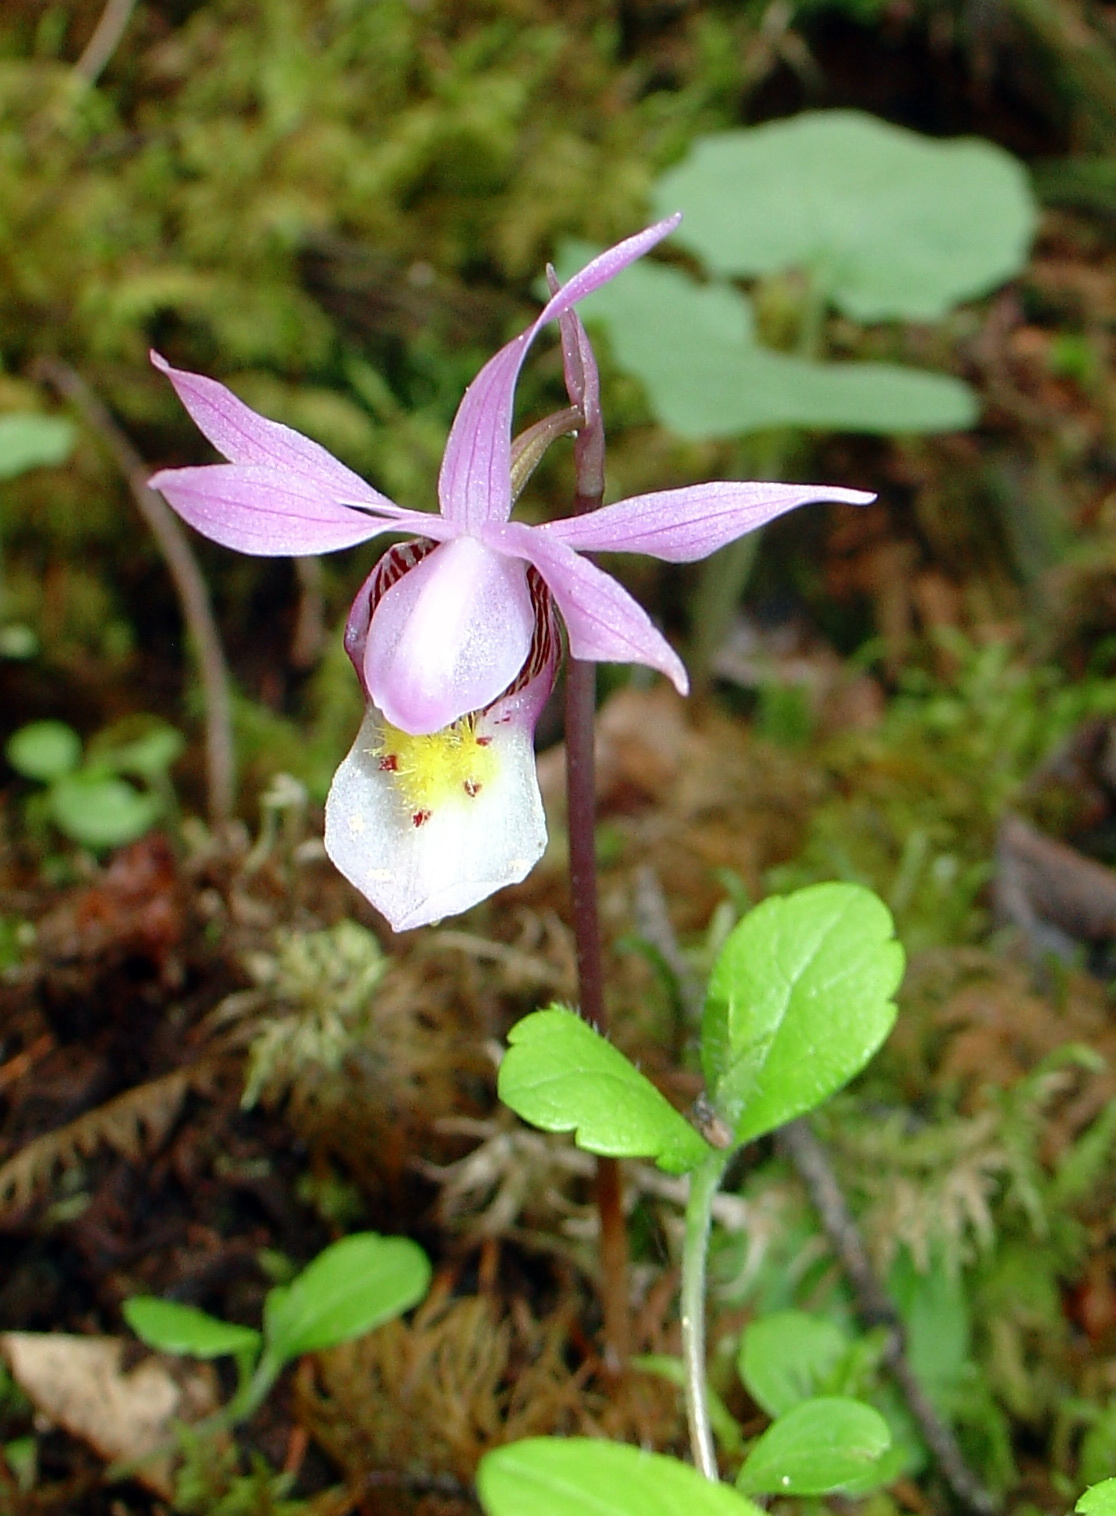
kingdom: Plantae
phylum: Tracheophyta
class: Liliopsida
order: Asparagales
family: Orchidaceae
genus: Calypso
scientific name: Calypso bulbosa
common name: Calypso
